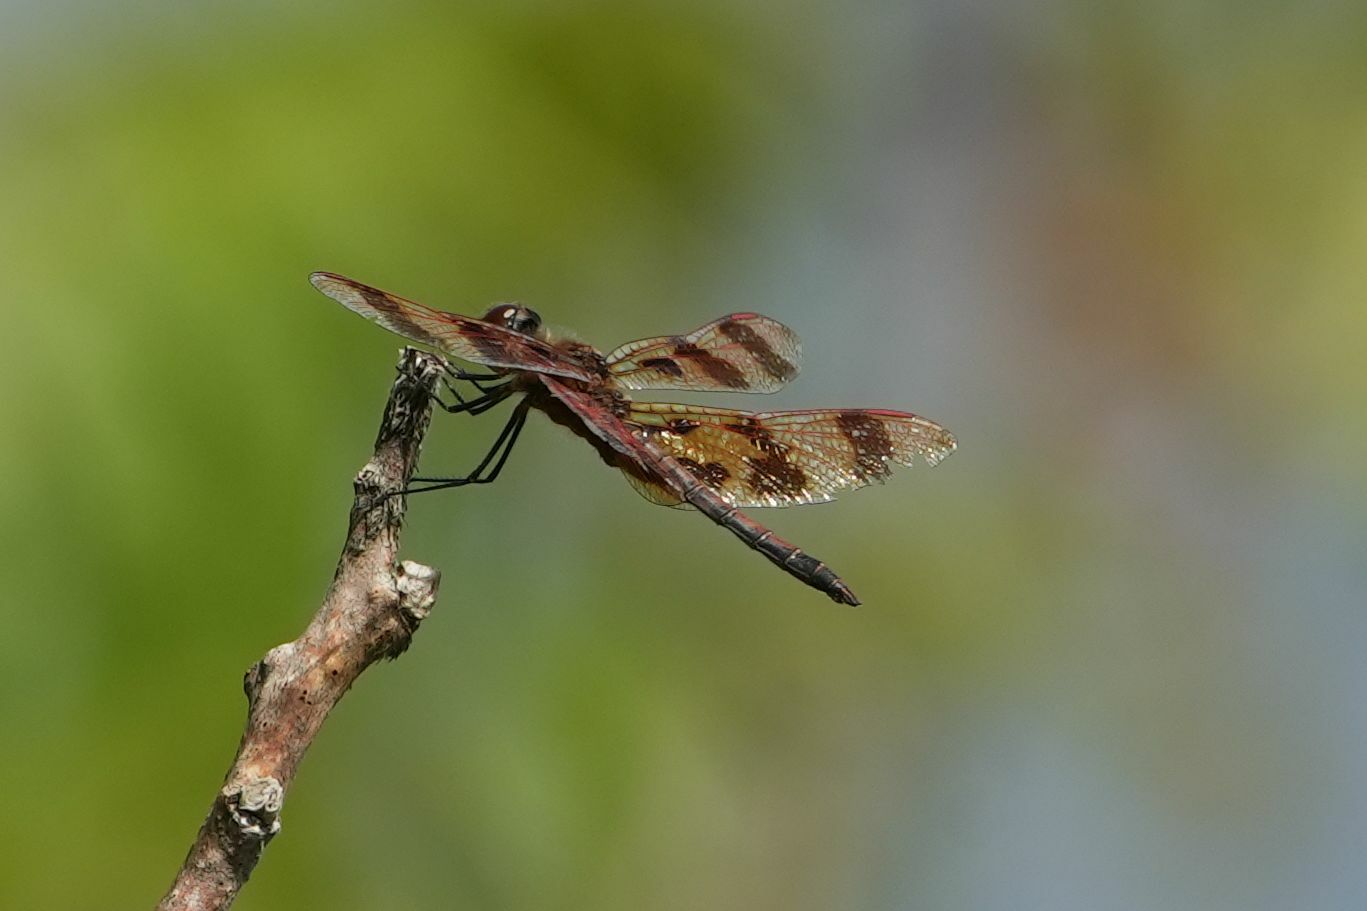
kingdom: Animalia
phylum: Arthropoda
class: Insecta
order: Odonata
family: Libellulidae
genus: Celithemis
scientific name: Celithemis eponina
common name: Halloween pennant
